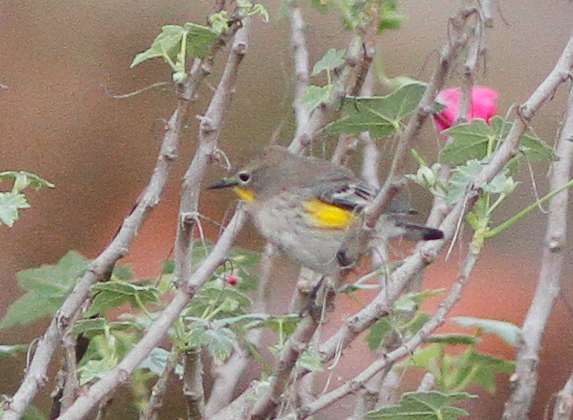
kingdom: Animalia
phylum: Chordata
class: Aves
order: Passeriformes
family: Parulidae
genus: Setophaga
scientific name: Setophaga auduboni
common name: Audubon's warbler
